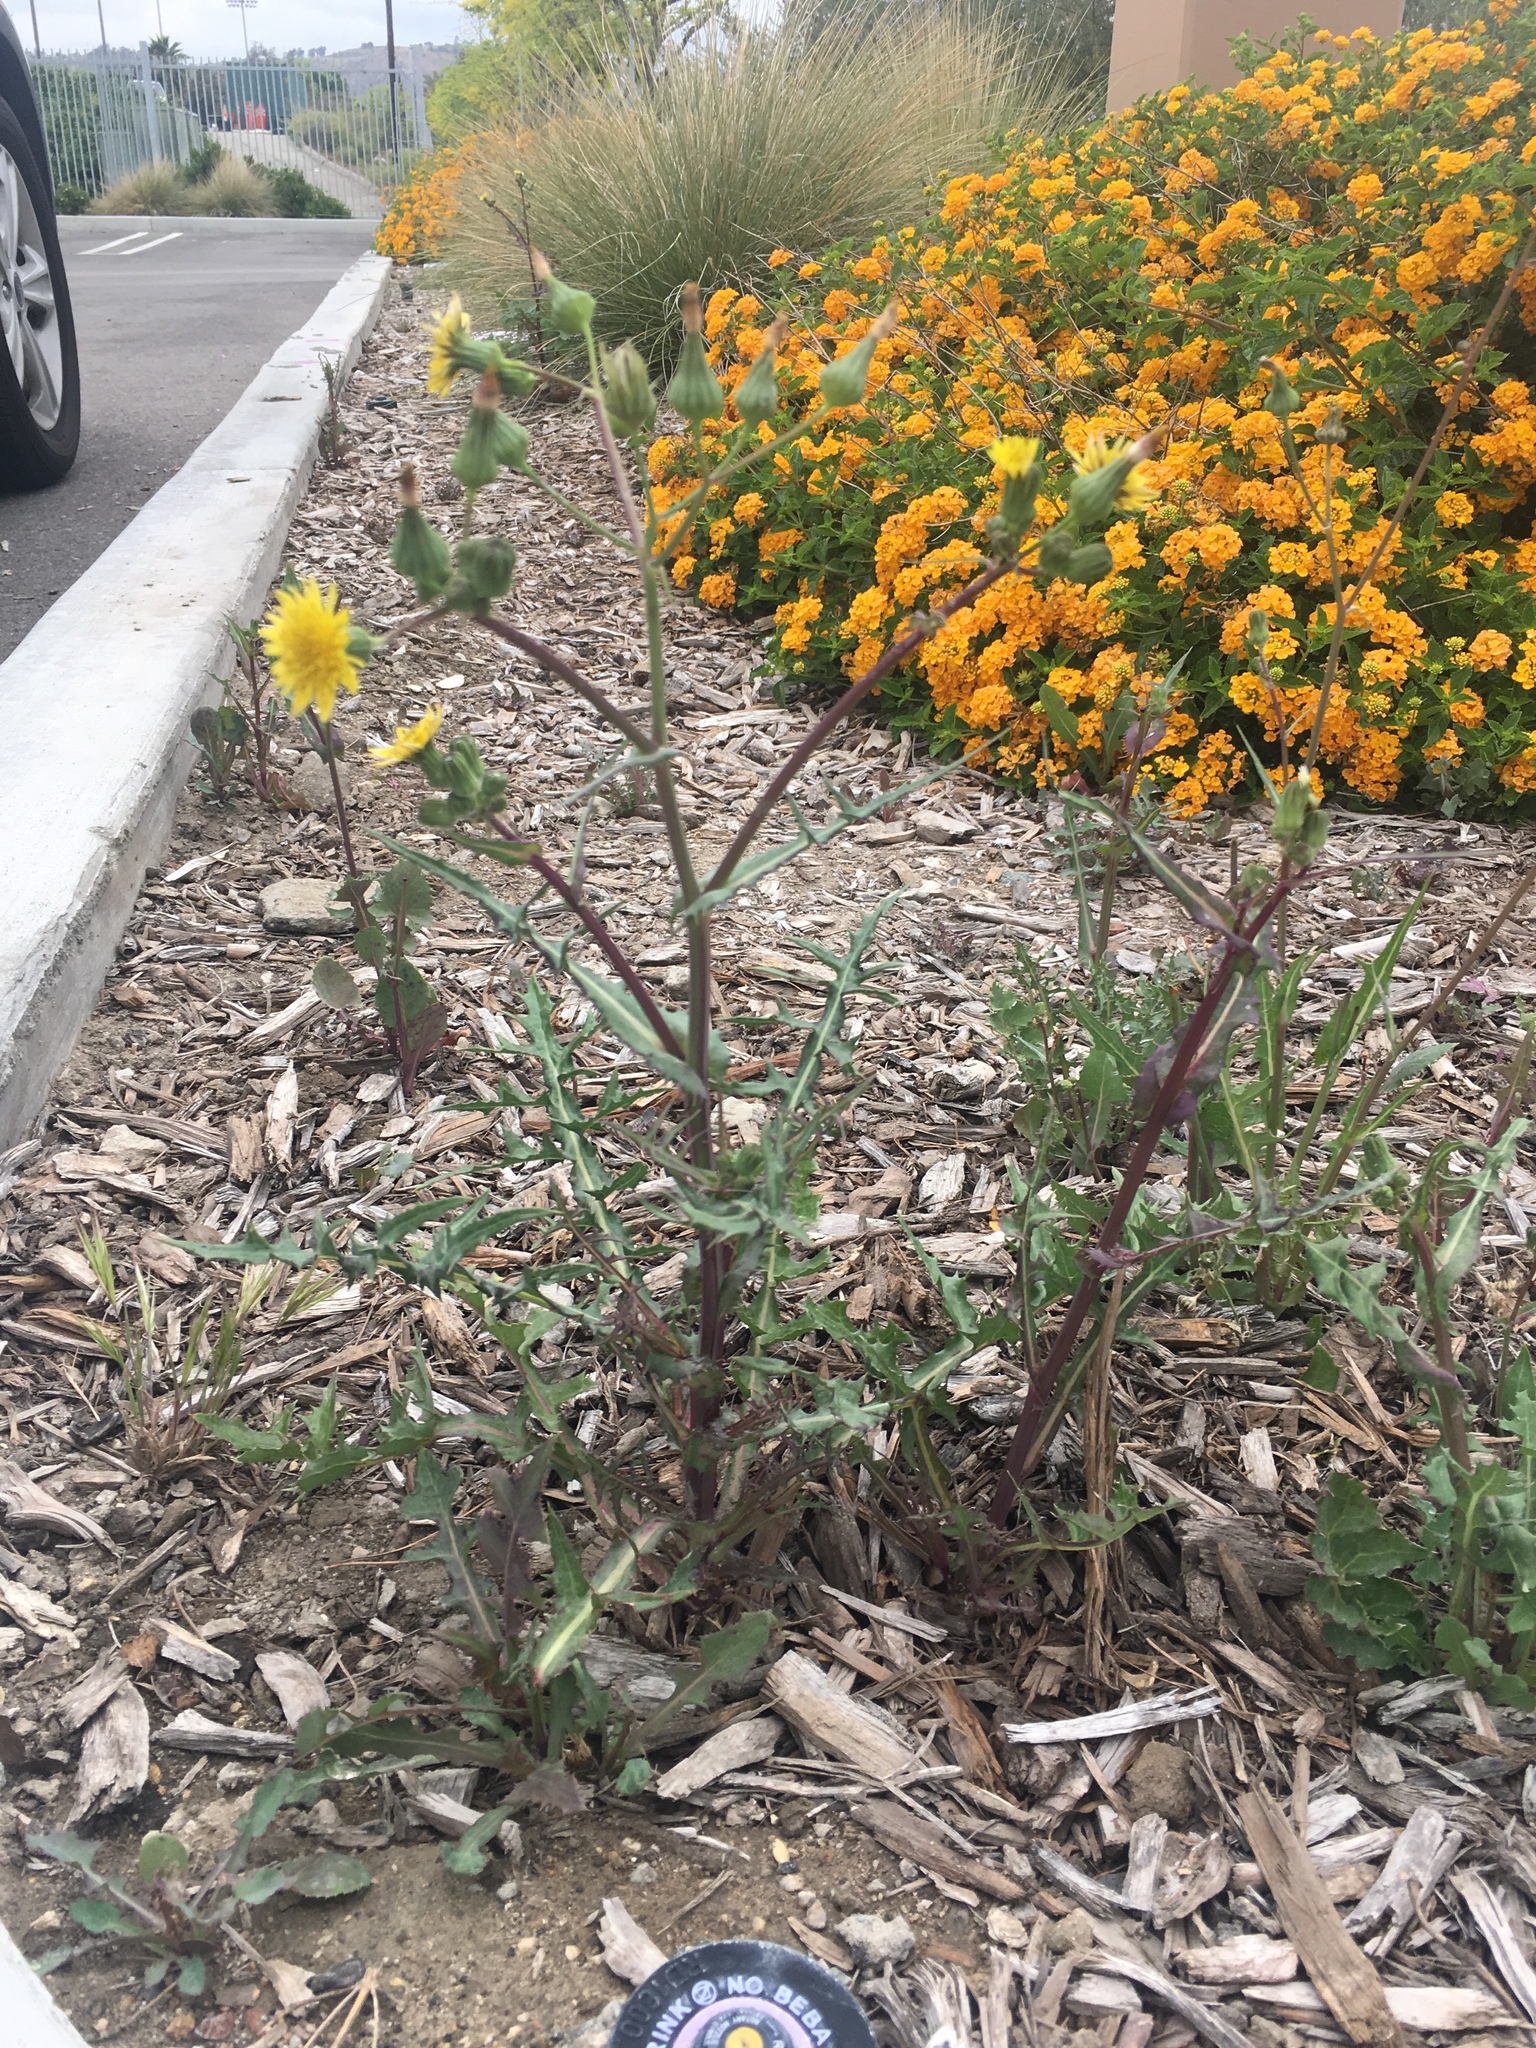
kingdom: Plantae
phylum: Tracheophyta
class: Magnoliopsida
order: Asterales
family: Asteraceae
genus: Sonchus
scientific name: Sonchus oleraceus
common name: Common sowthistle
